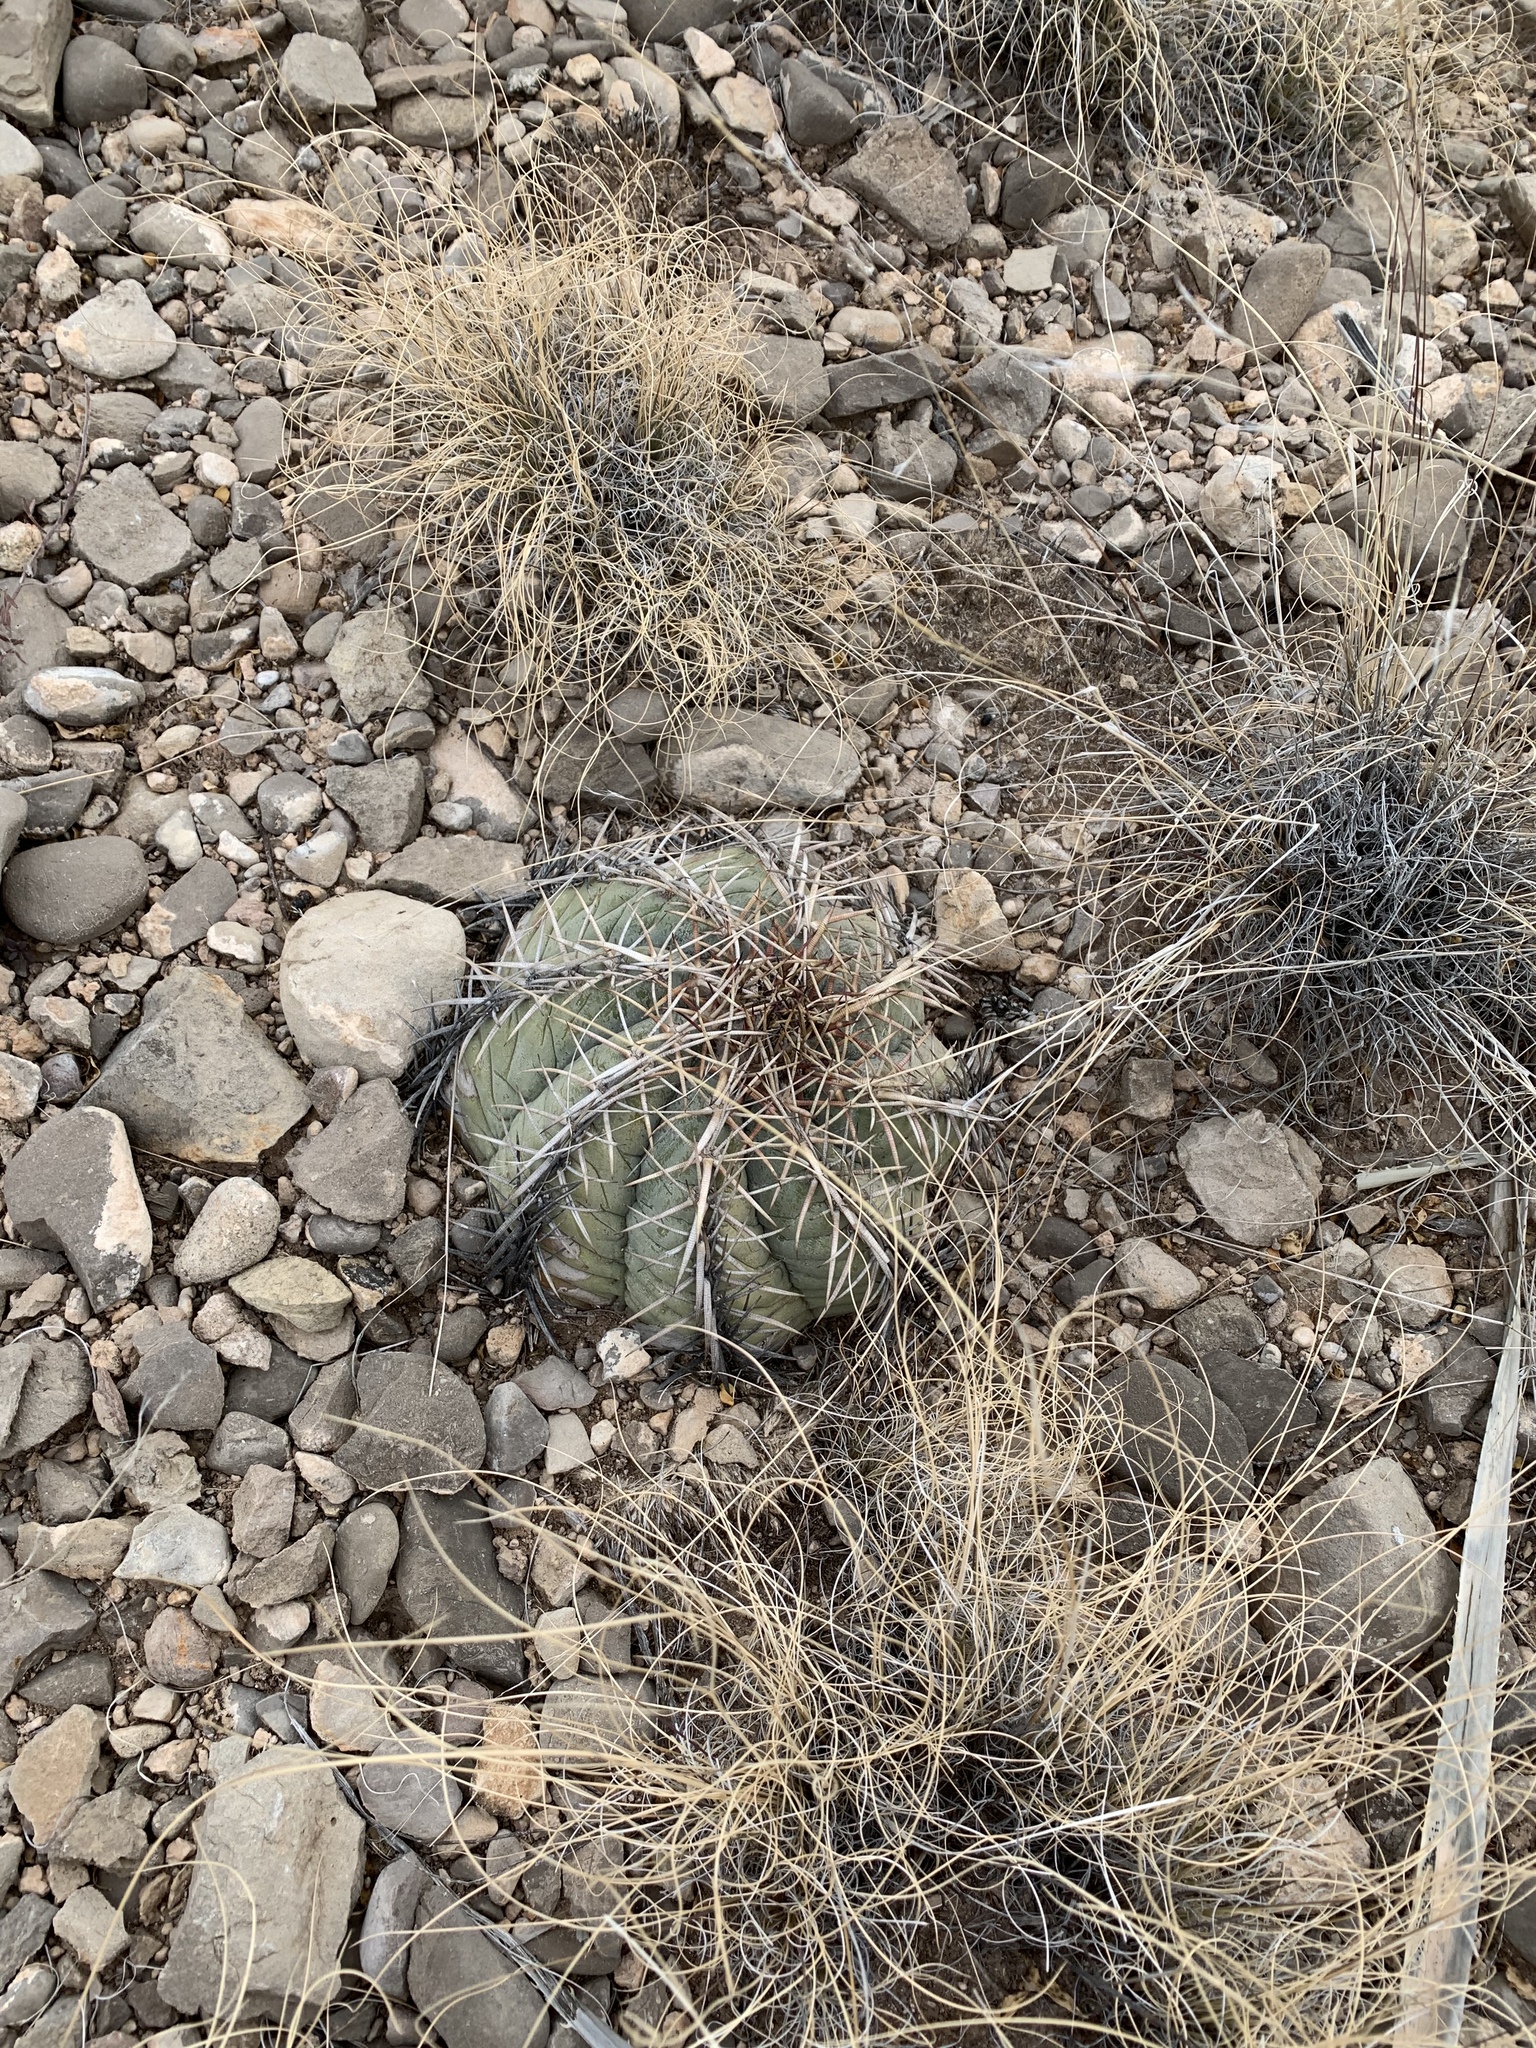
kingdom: Plantae
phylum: Tracheophyta
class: Magnoliopsida
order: Caryophyllales
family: Cactaceae
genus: Echinocactus
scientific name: Echinocactus horizonthalonius
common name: Devilshead
